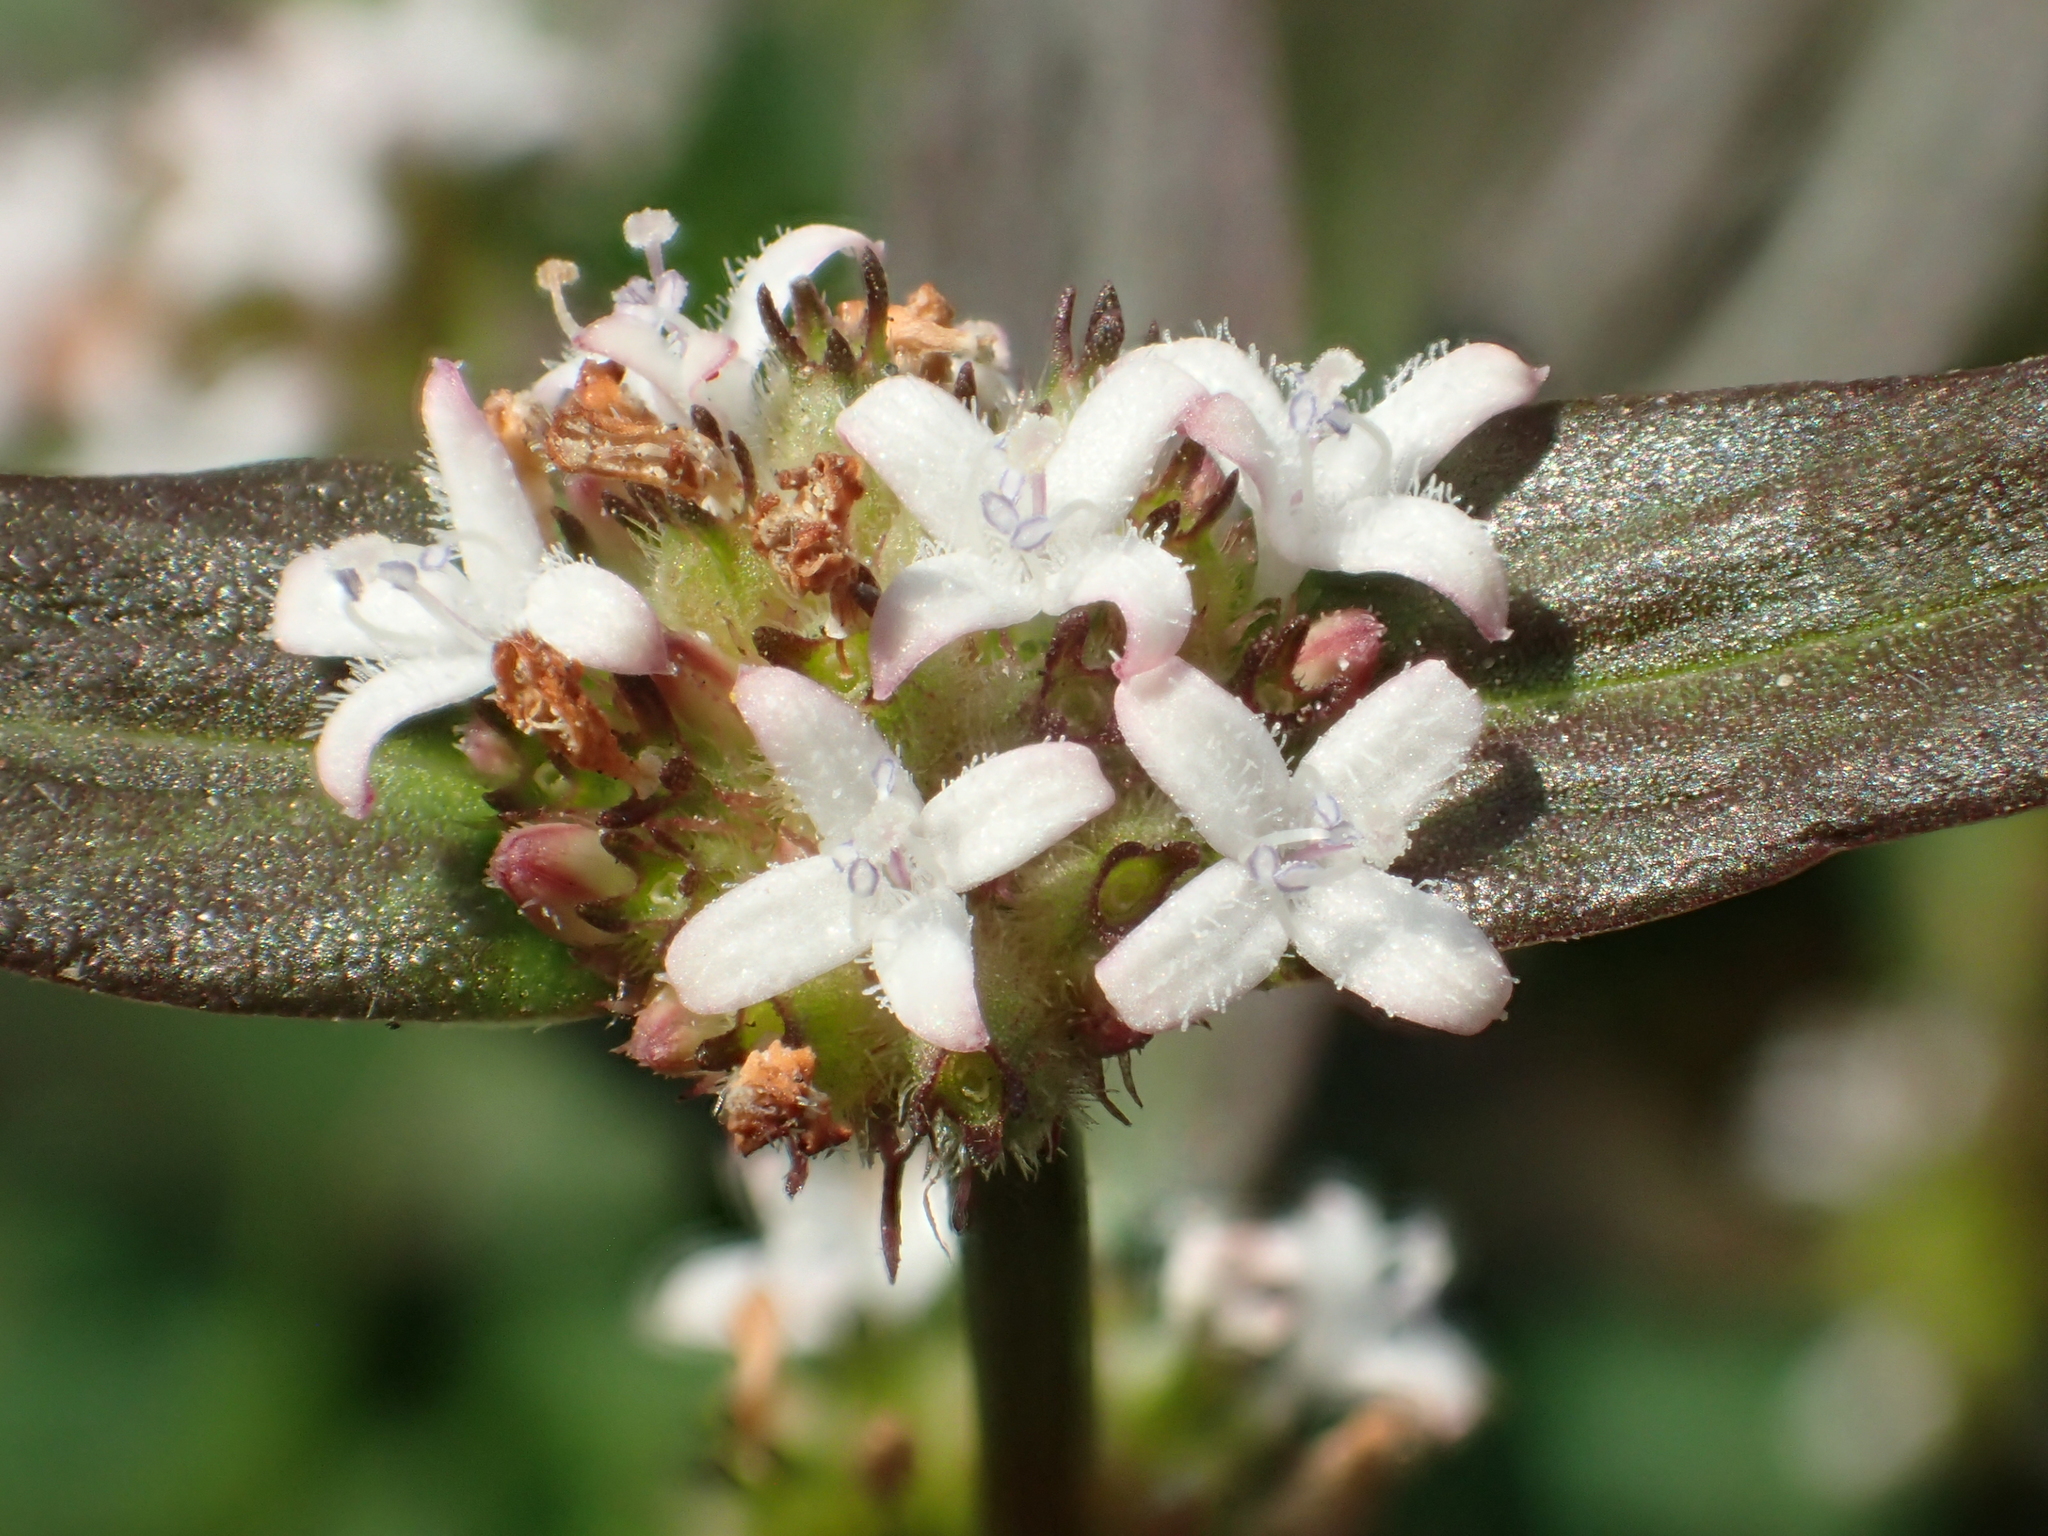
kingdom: Plantae
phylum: Tracheophyta
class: Magnoliopsida
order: Gentianales
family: Rubiaceae
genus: Spermacoce
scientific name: Spermacoce remota
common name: Woodland false buttonweed
